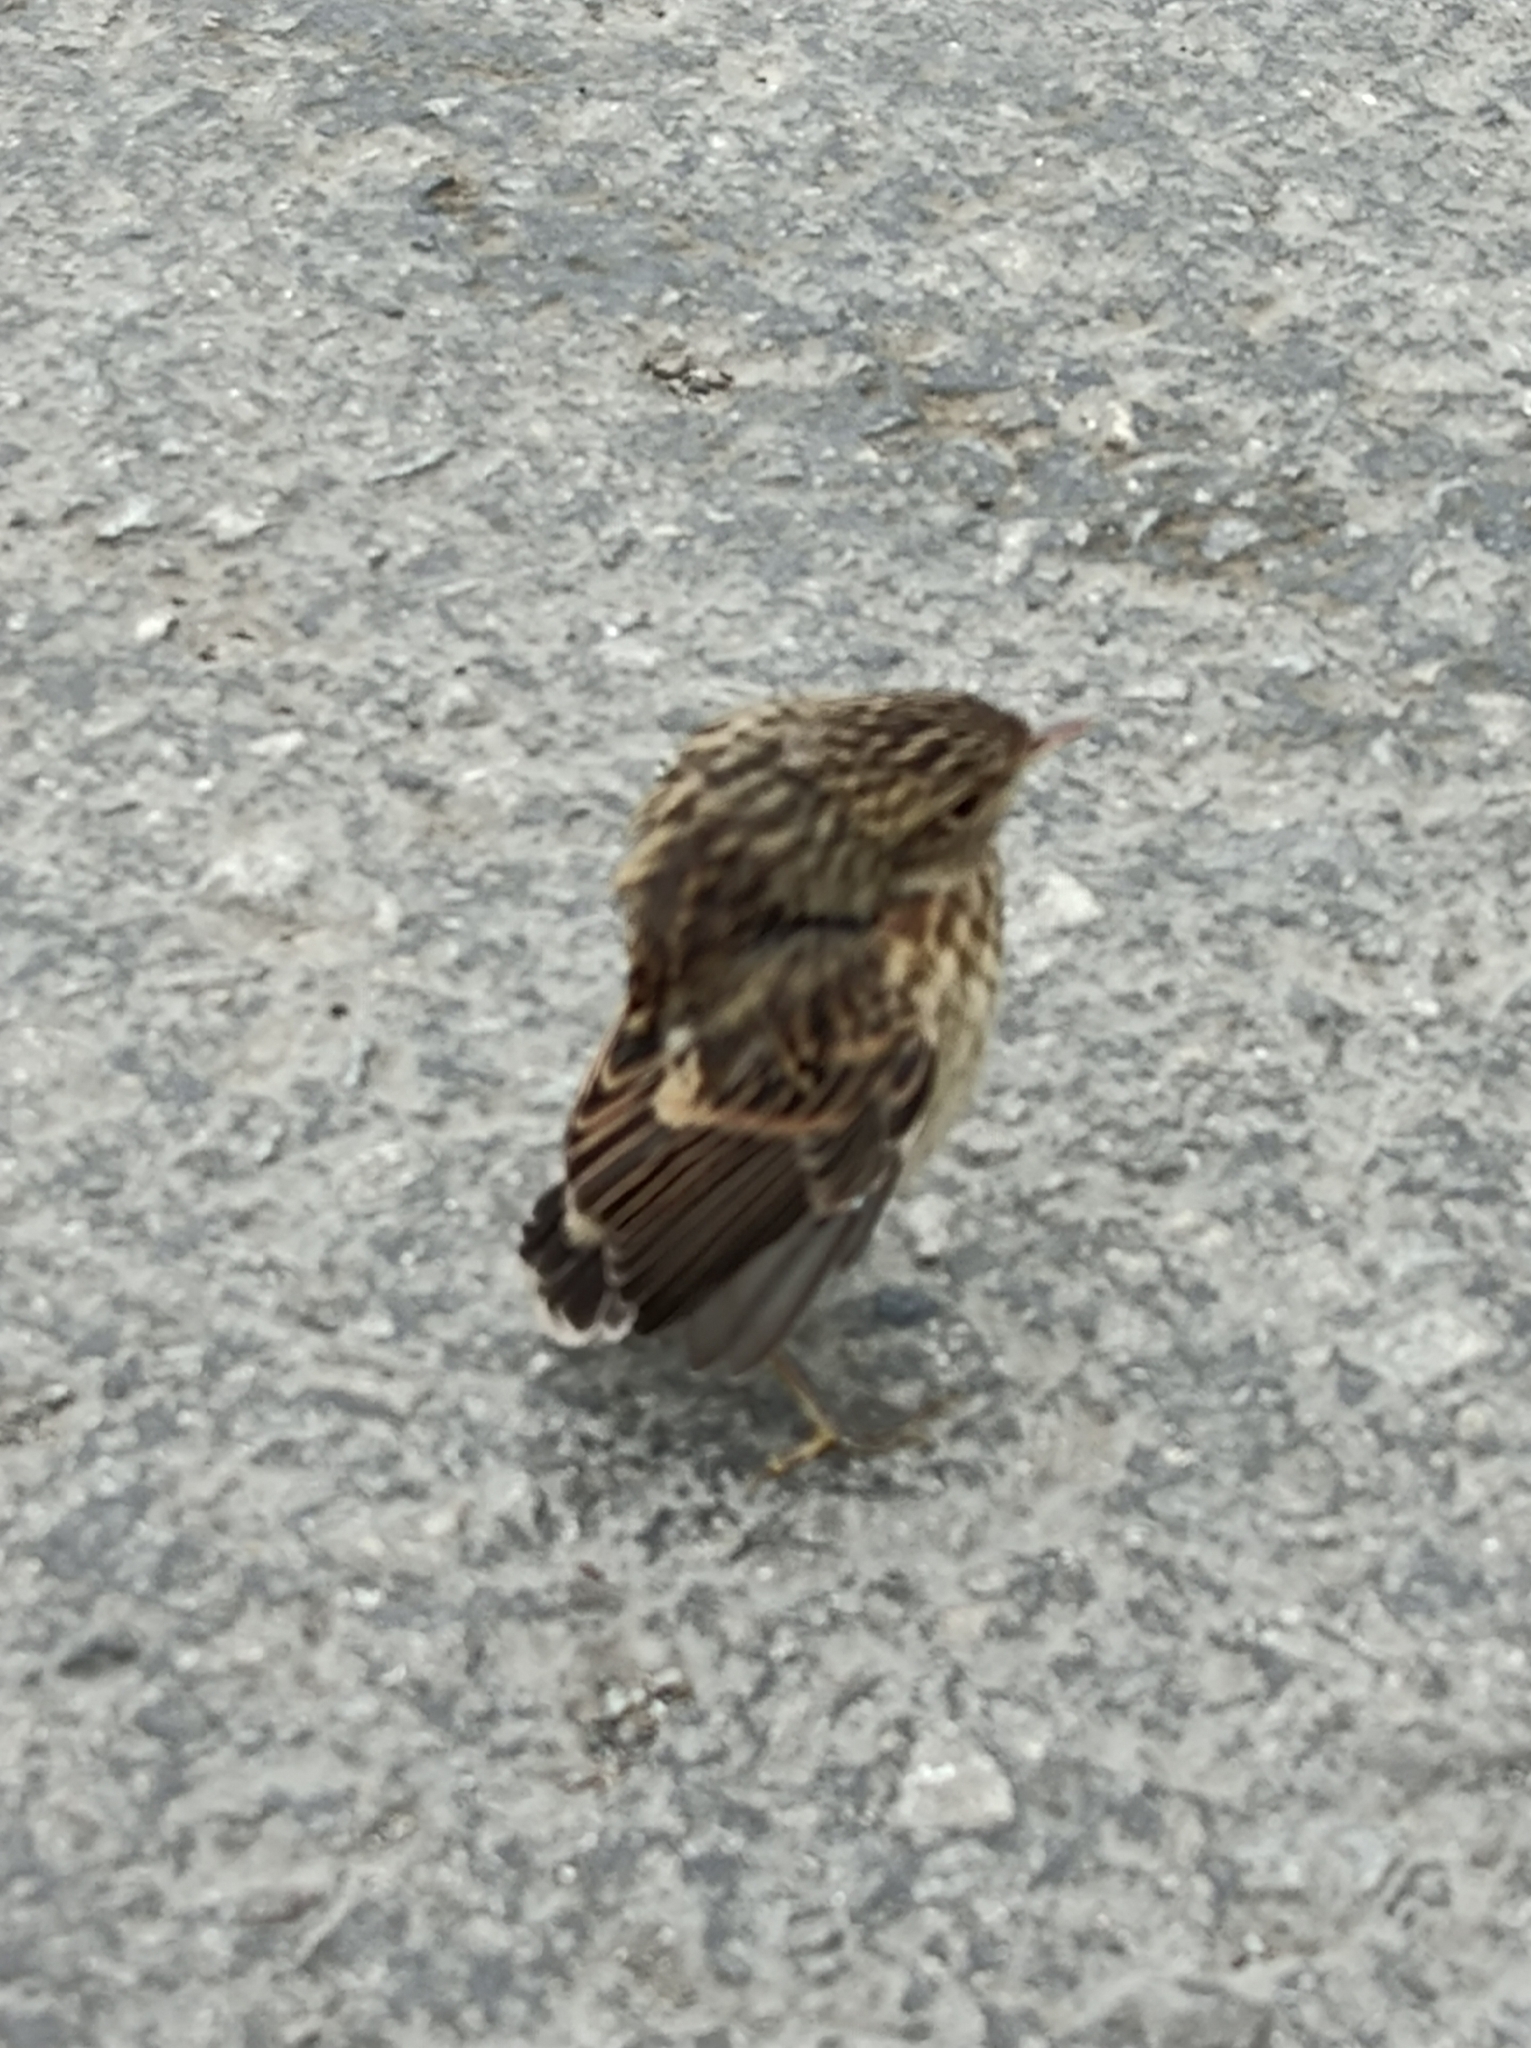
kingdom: Animalia
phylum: Chordata
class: Aves
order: Passeriformes
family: Muscicapidae
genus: Muscicapa
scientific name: Muscicapa striata
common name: Spotted flycatcher
